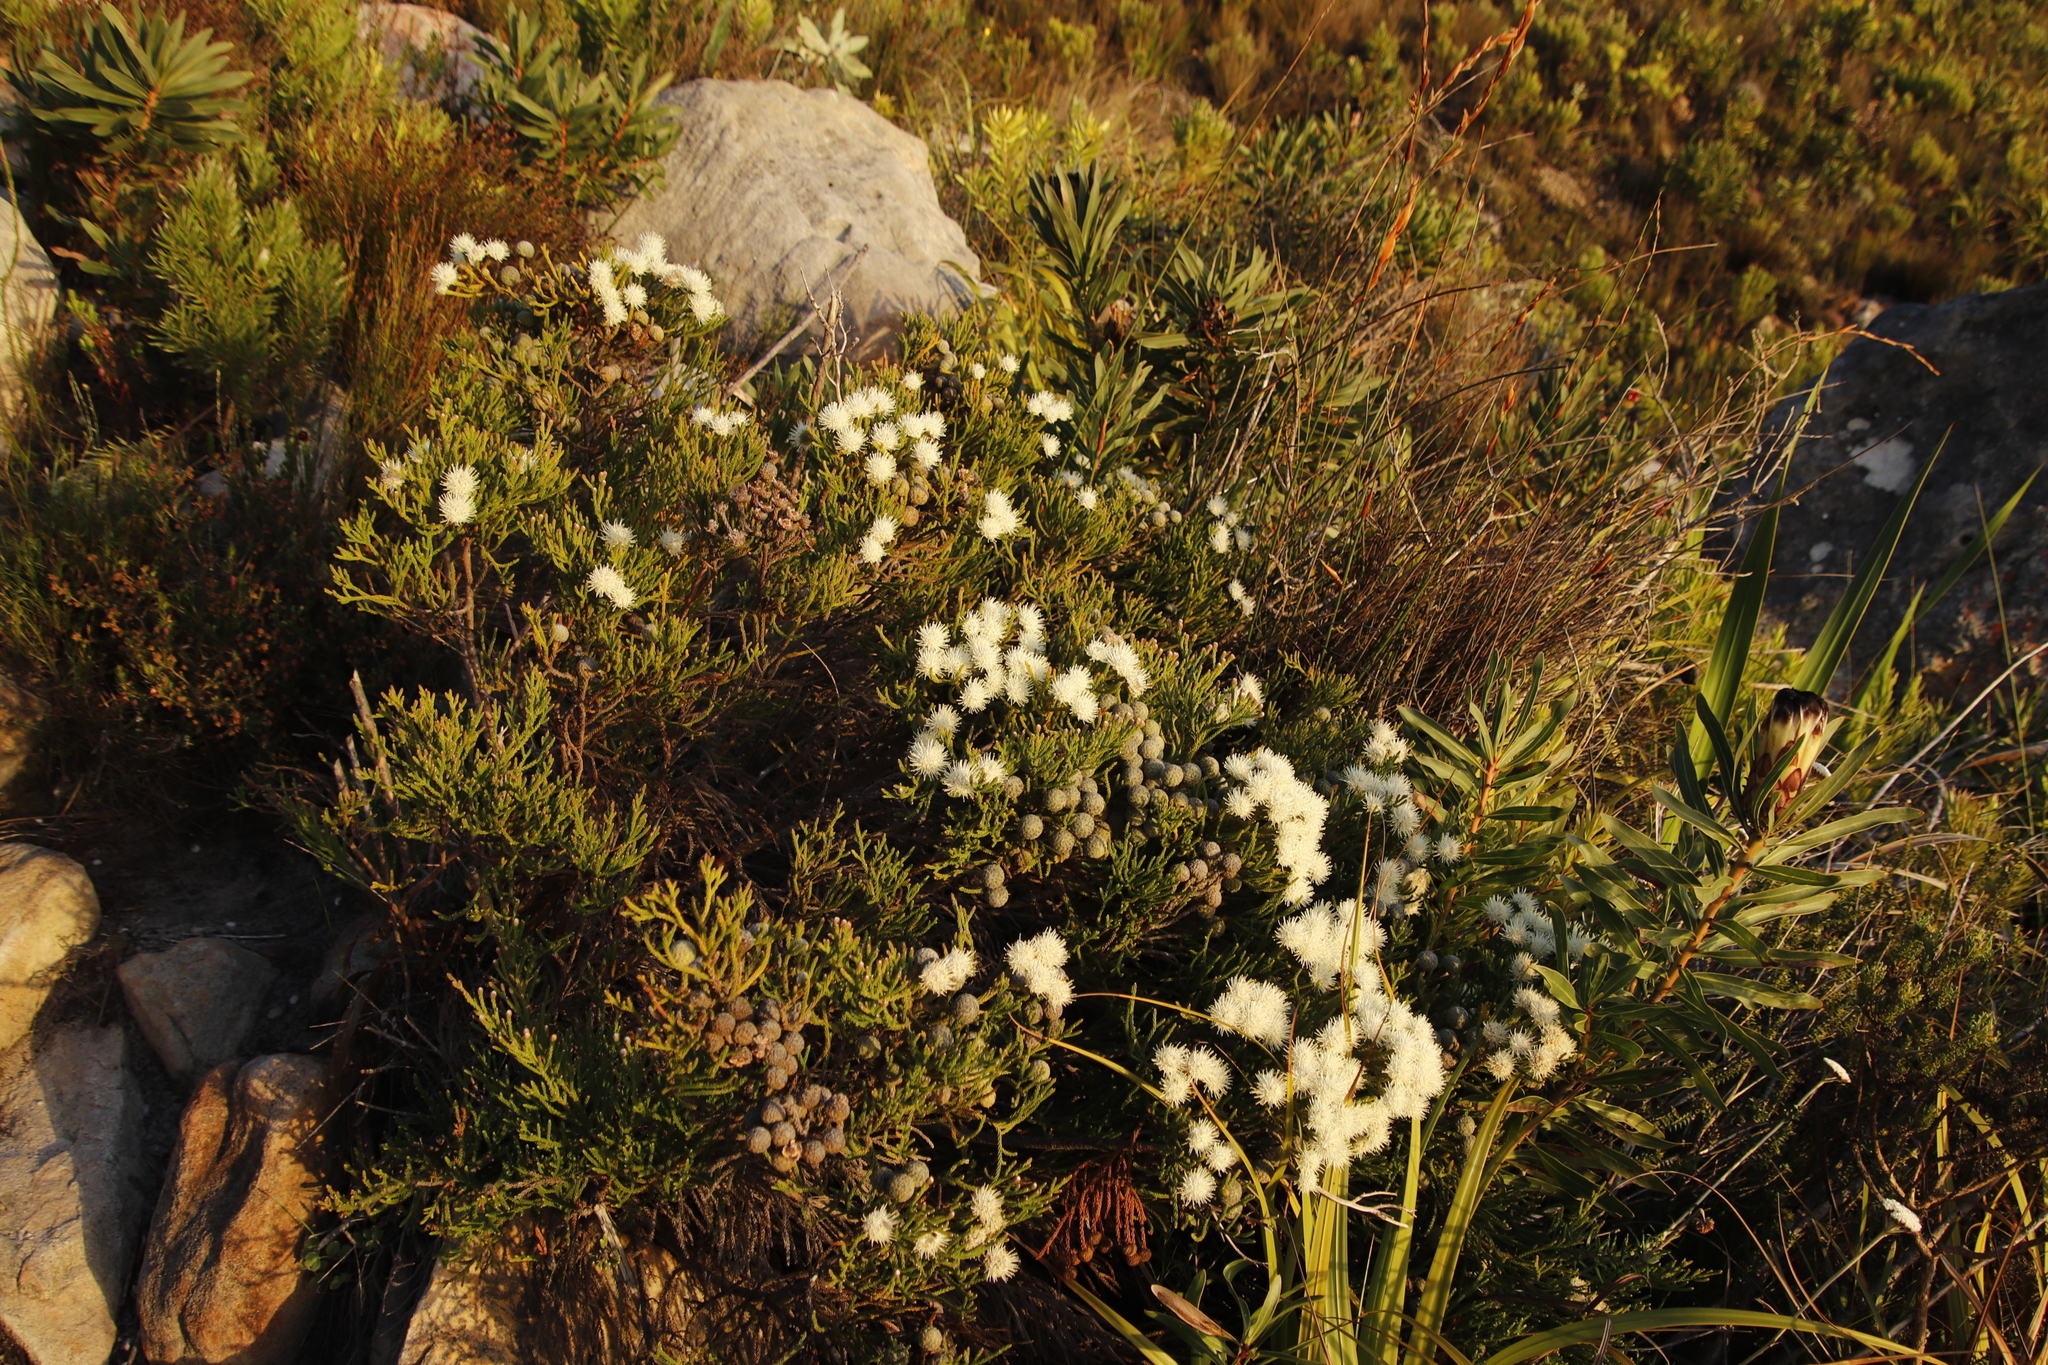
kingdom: Plantae
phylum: Tracheophyta
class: Magnoliopsida
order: Bruniales
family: Bruniaceae
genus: Brunia
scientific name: Brunia noduliflora
